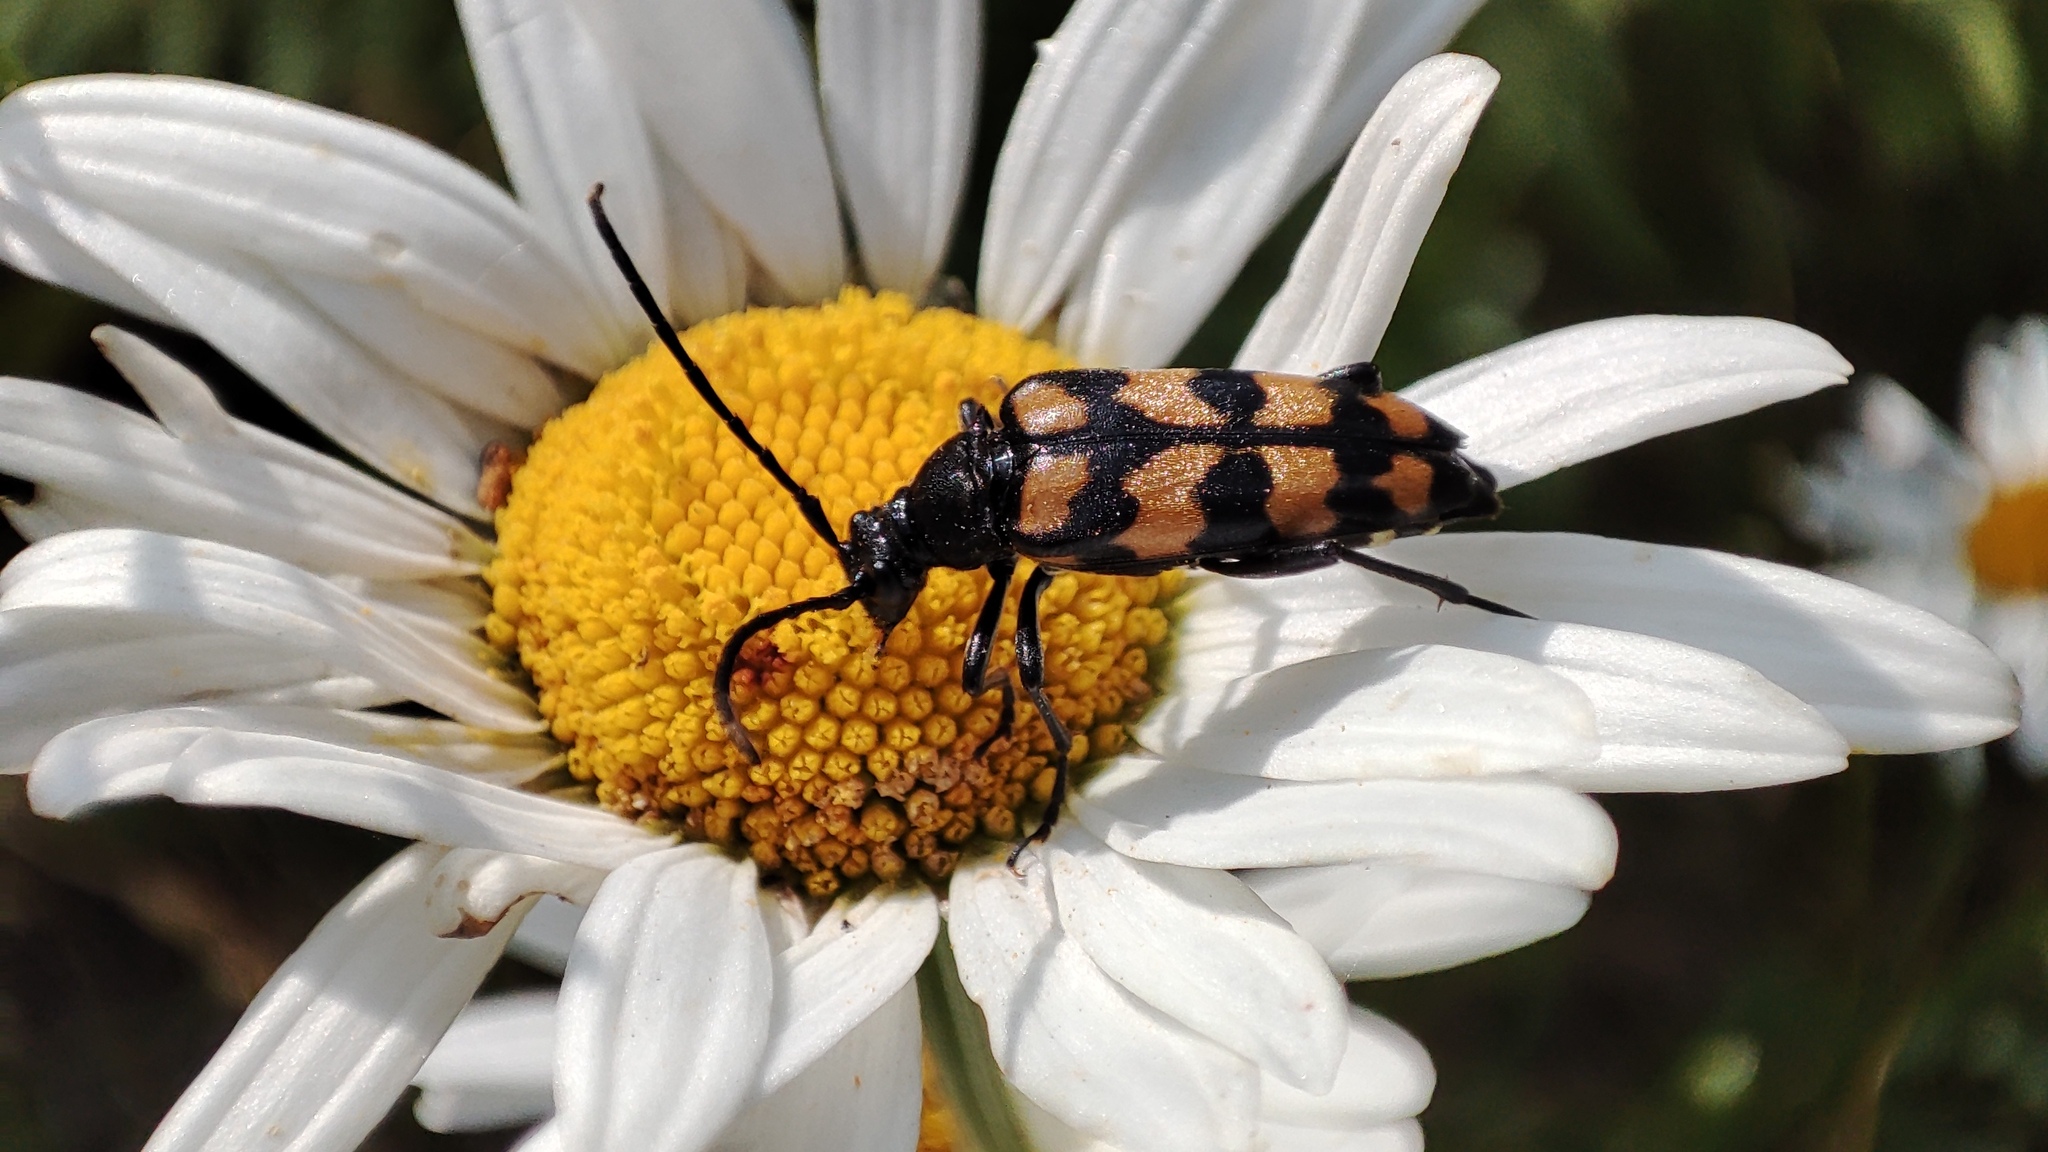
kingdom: Animalia
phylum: Arthropoda
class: Insecta
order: Coleoptera
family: Cerambycidae
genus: Leptura
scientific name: Leptura quadrifasciata
